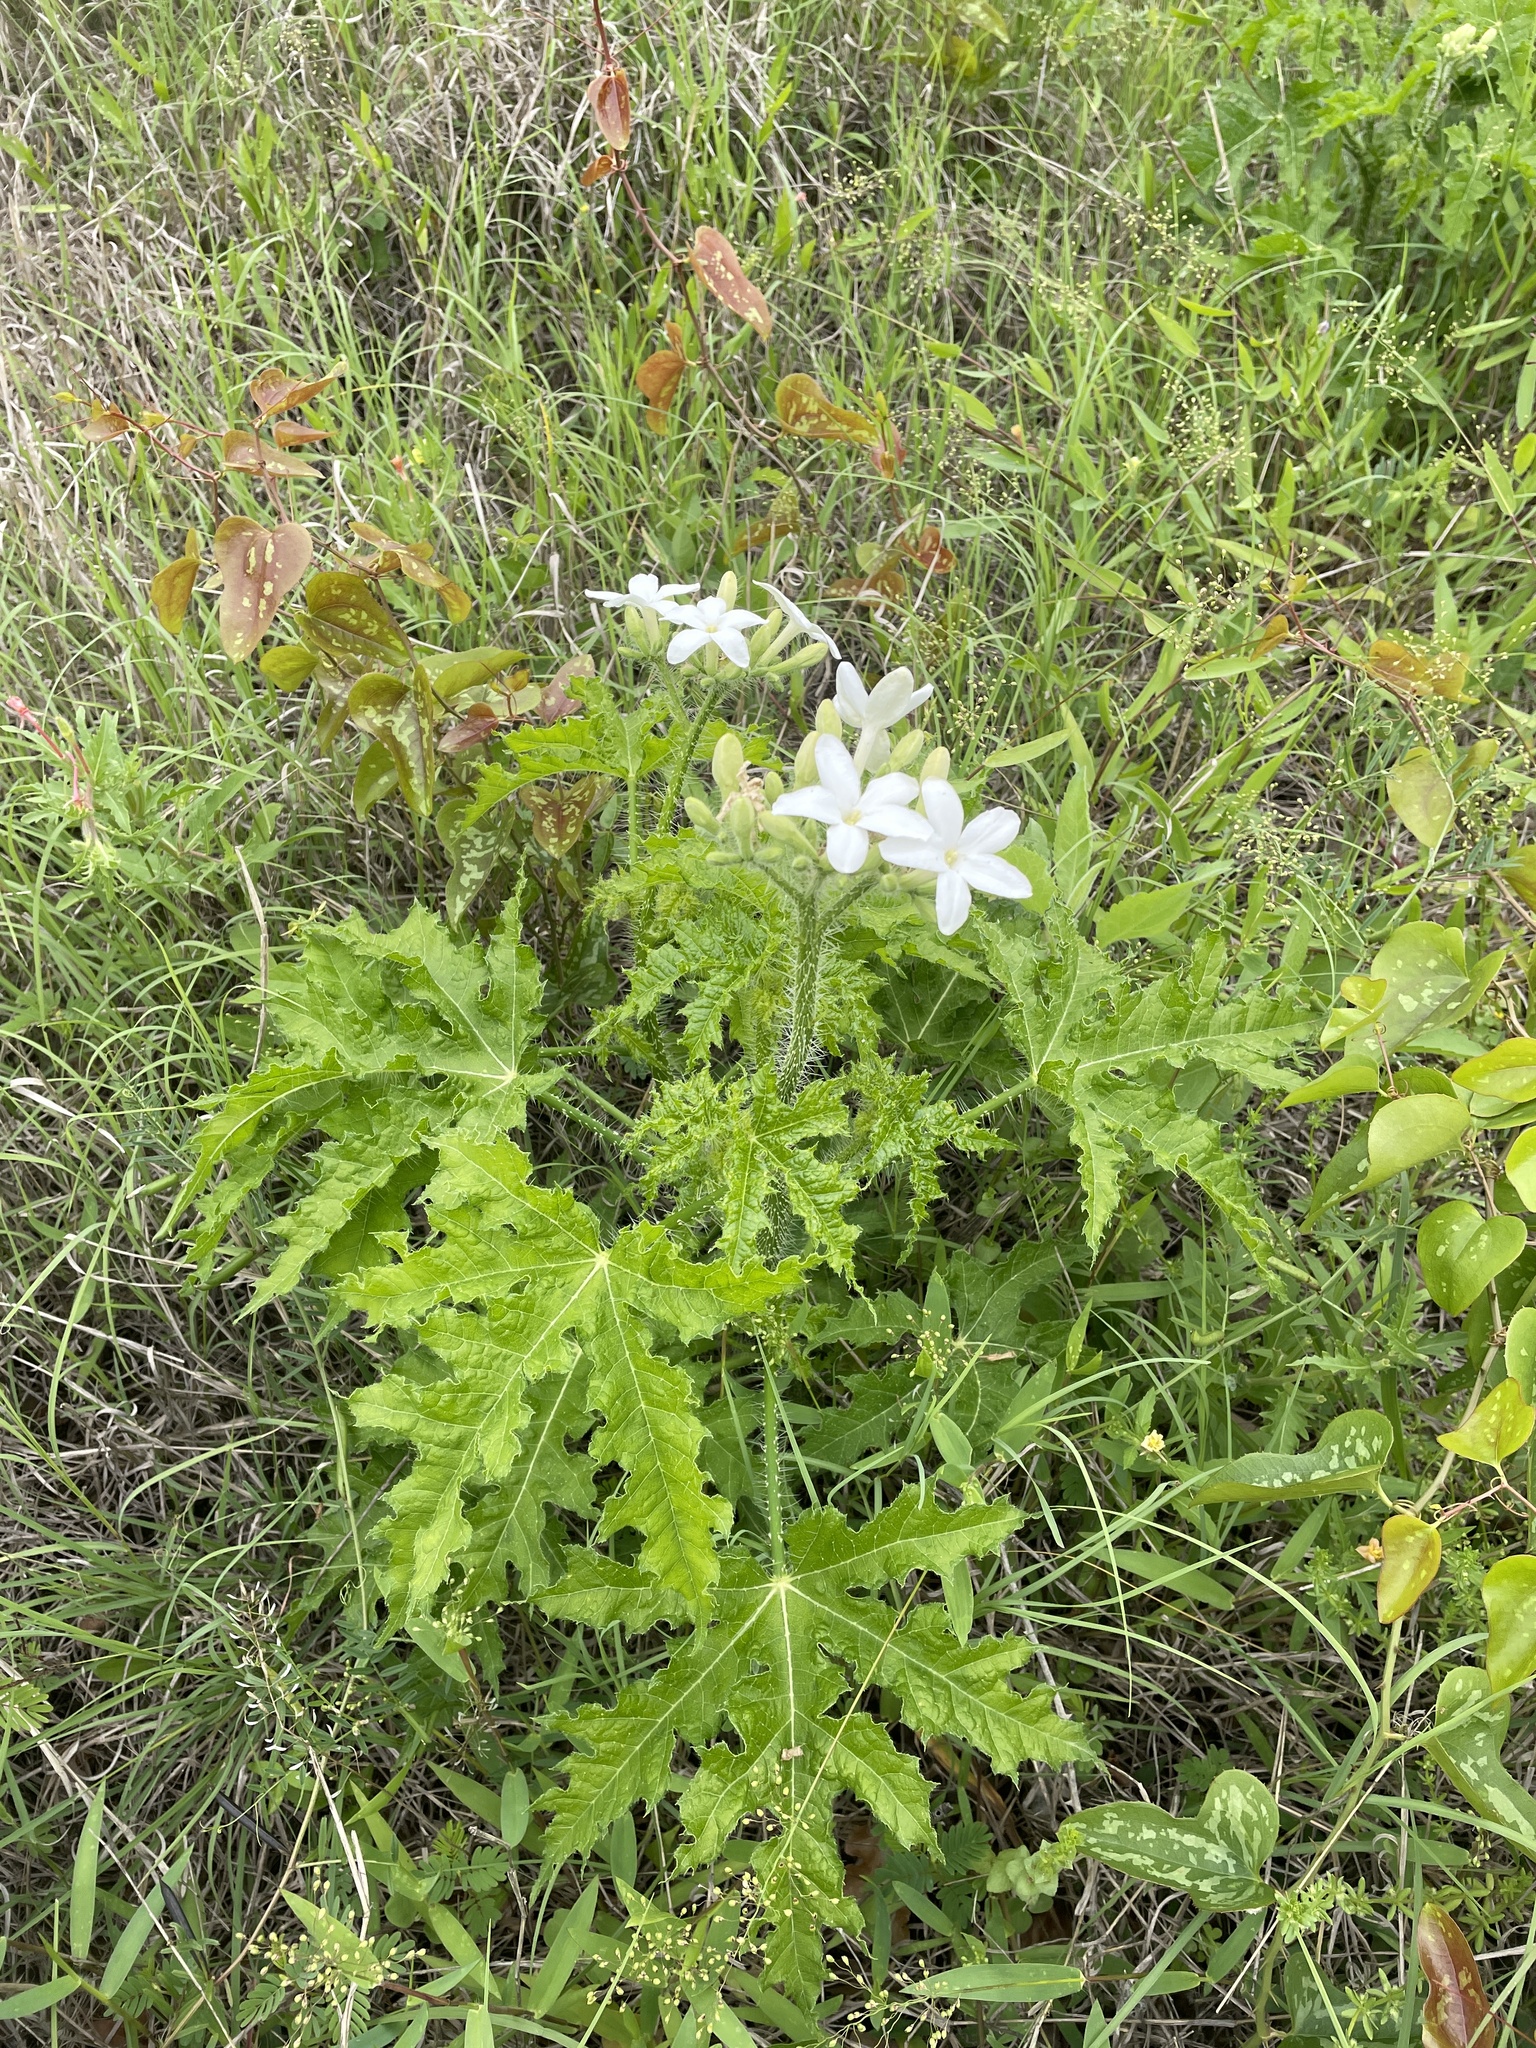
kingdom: Plantae
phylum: Tracheophyta
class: Magnoliopsida
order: Malpighiales
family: Euphorbiaceae
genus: Cnidoscolus
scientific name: Cnidoscolus texanus
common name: Texas bull-nettle
